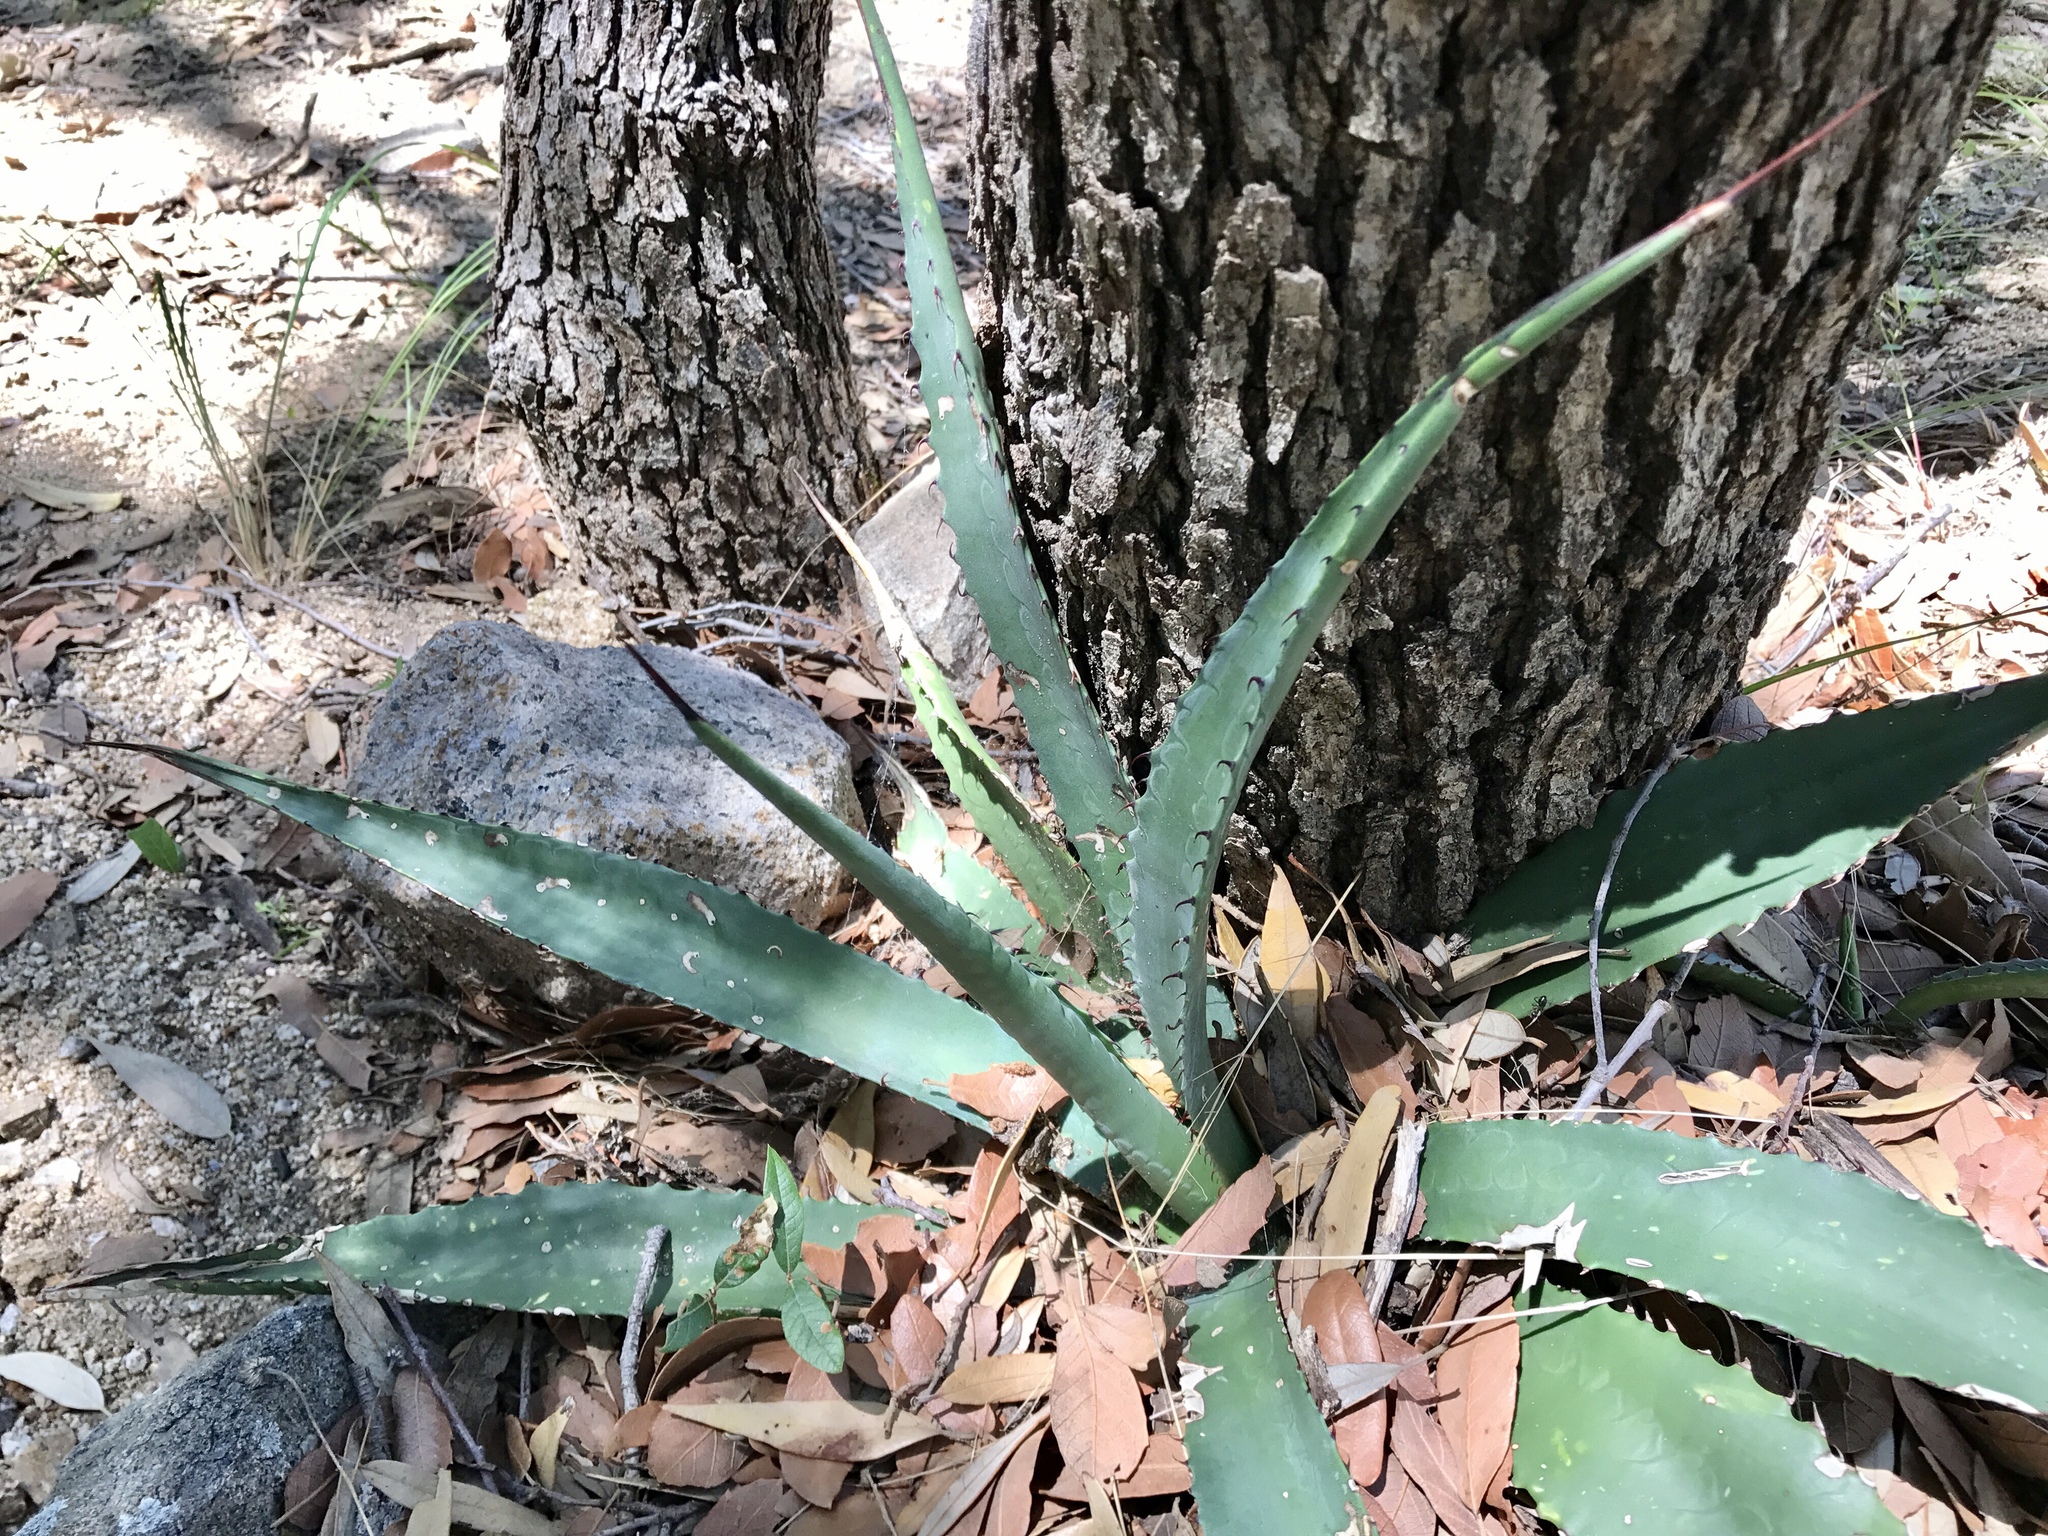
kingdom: Plantae
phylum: Tracheophyta
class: Liliopsida
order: Asparagales
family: Asparagaceae
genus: Agave
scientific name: Agave palmeri
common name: Palmer agave
